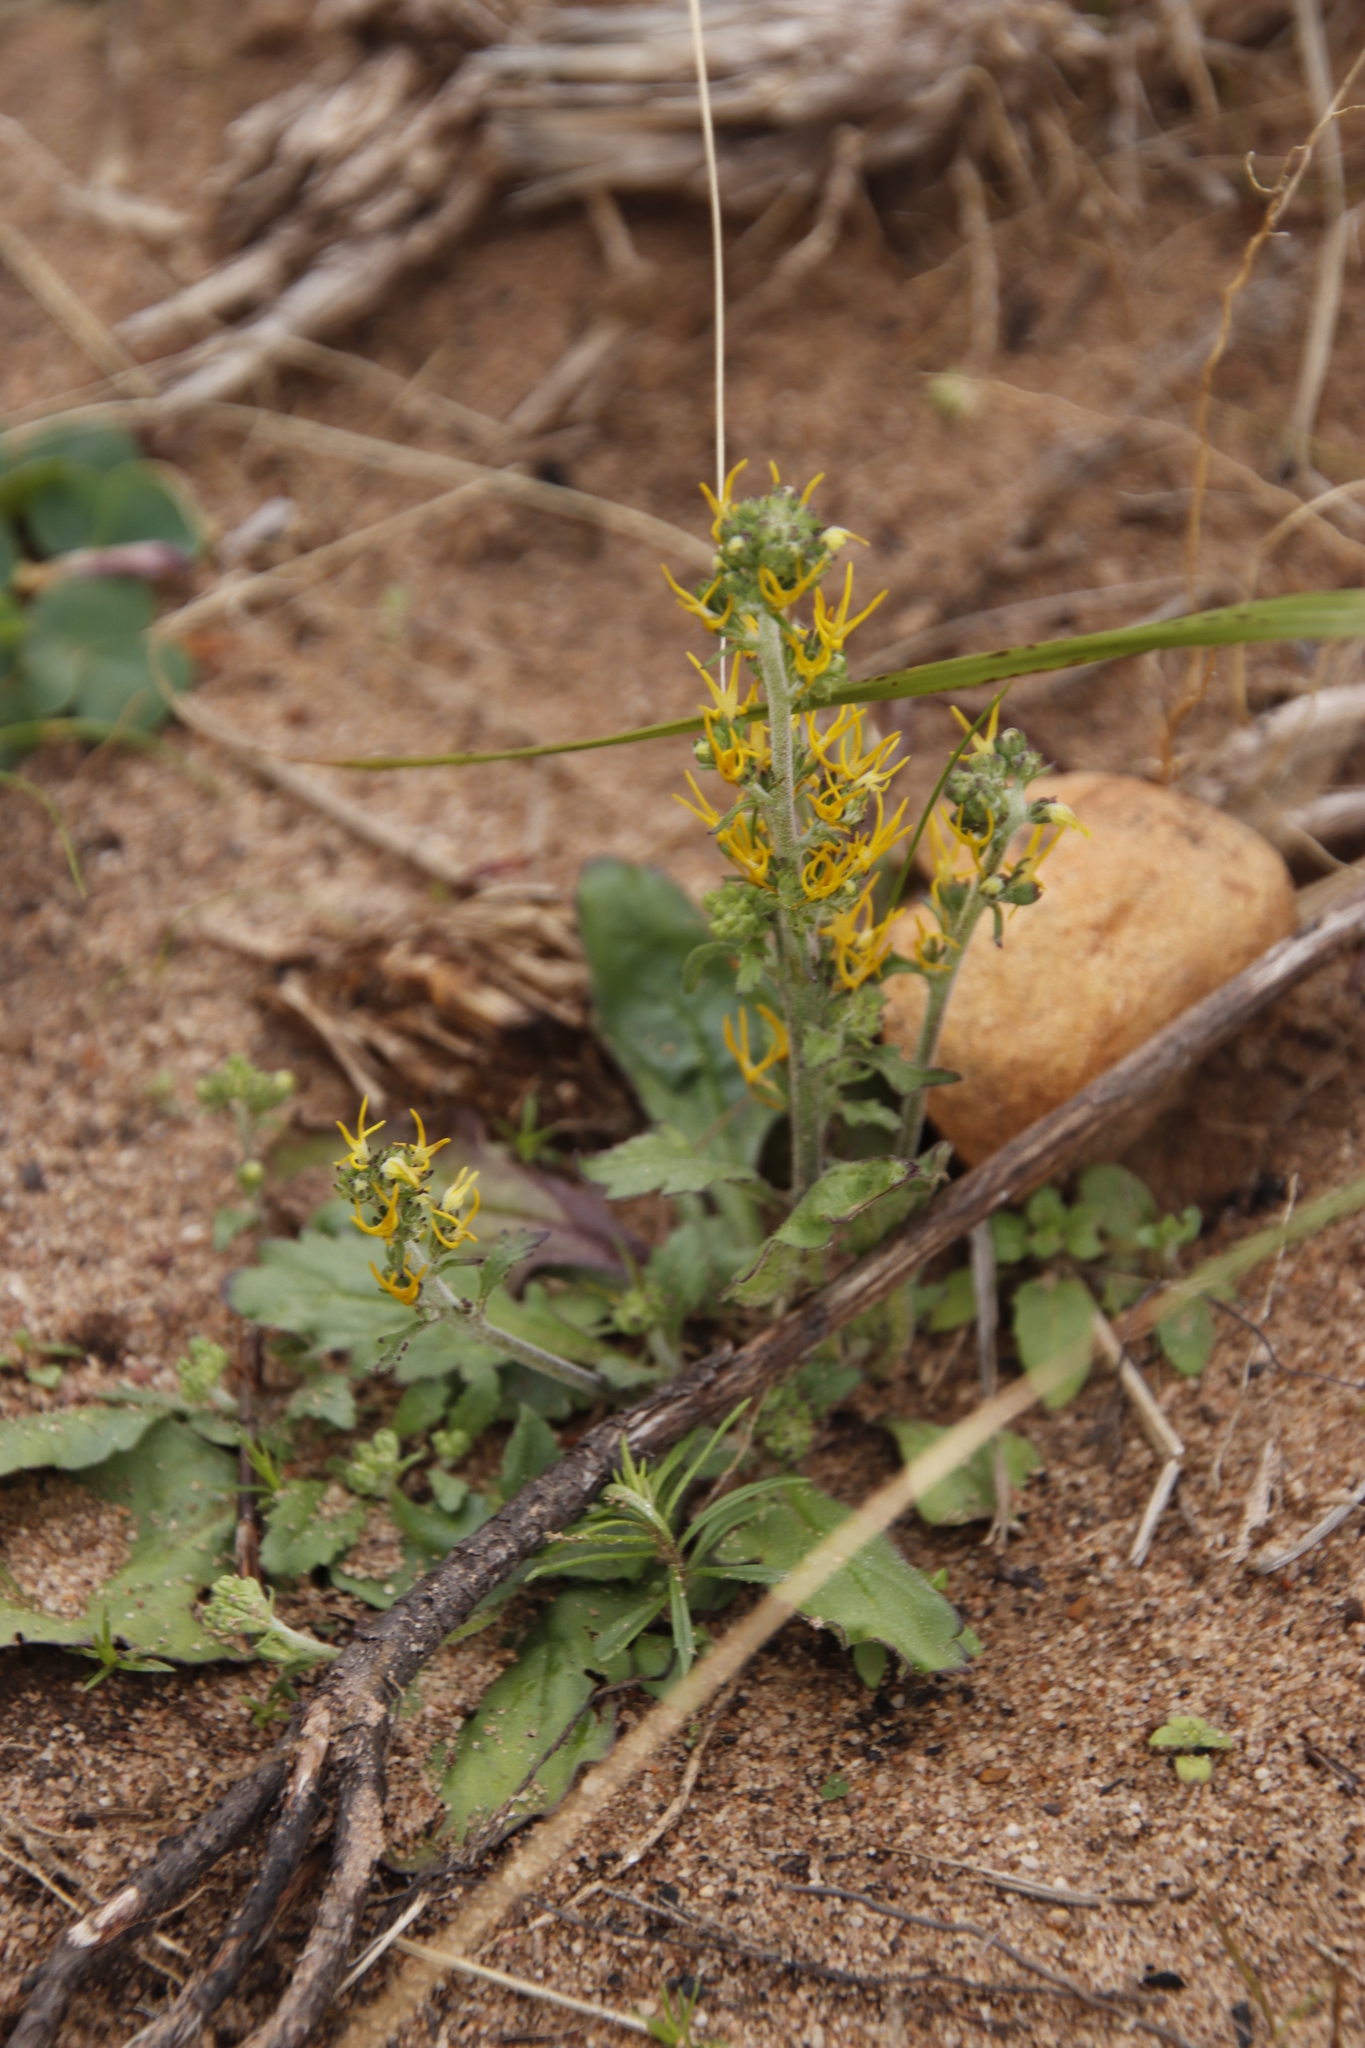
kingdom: Plantae
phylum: Tracheophyta
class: Magnoliopsida
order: Lamiales
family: Scrophulariaceae
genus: Manulea
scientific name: Manulea cheiranthus
